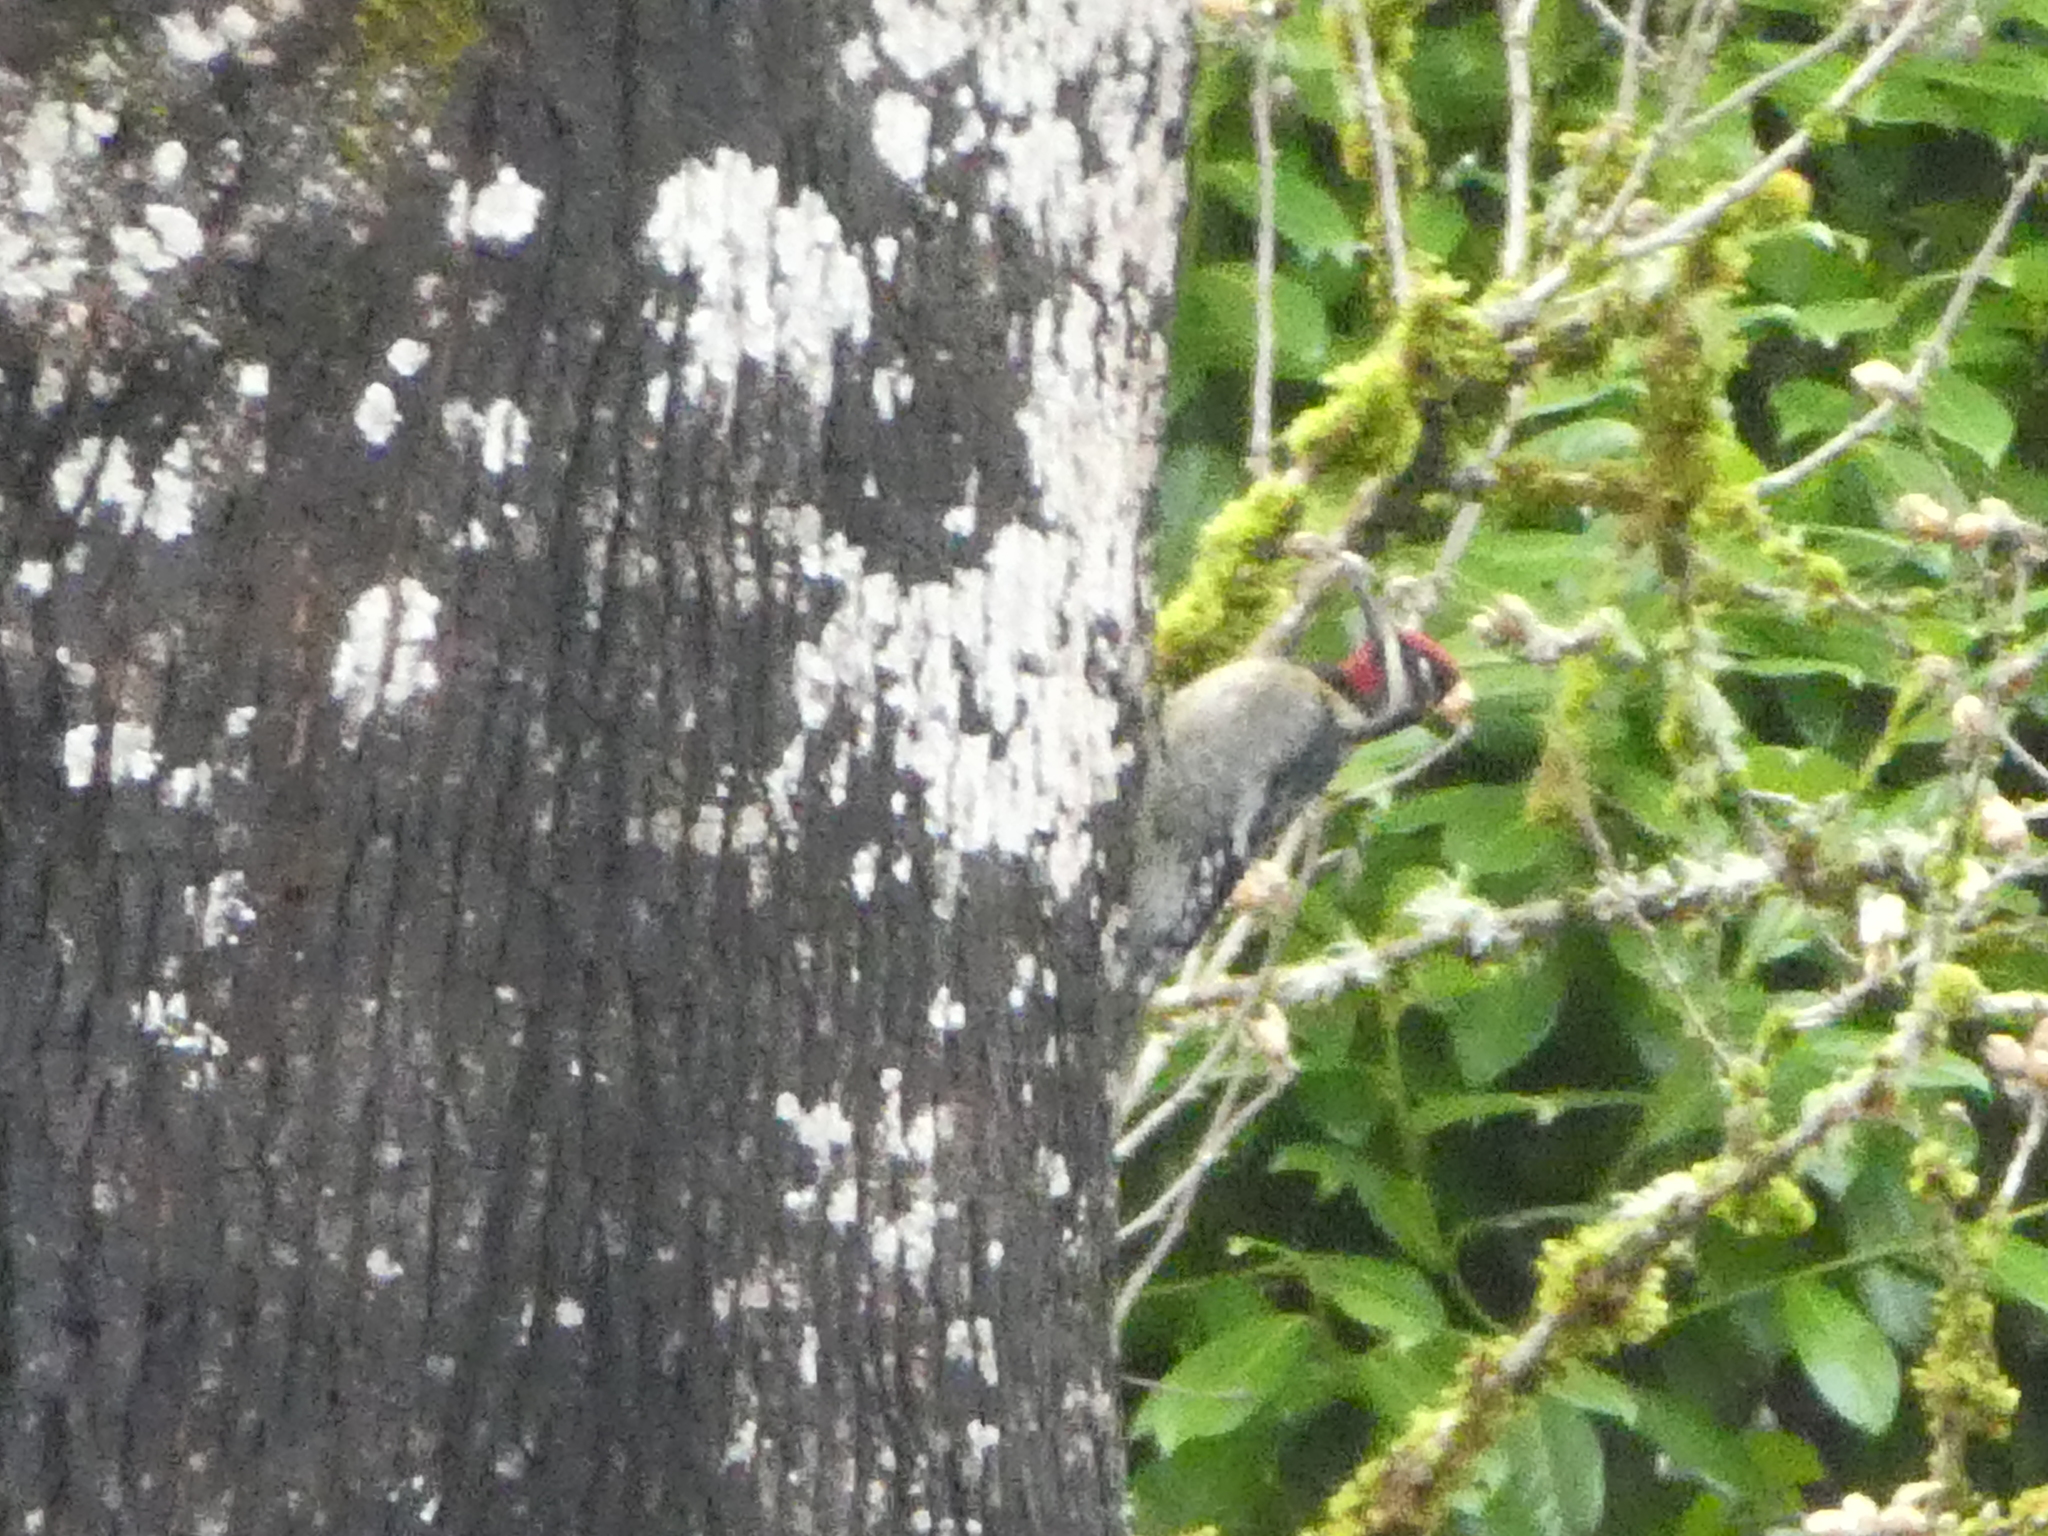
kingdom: Animalia
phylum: Chordata
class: Aves
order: Piciformes
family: Picidae
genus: Sphyrapicus
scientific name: Sphyrapicus nuchalis
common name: Red-naped sapsucker
